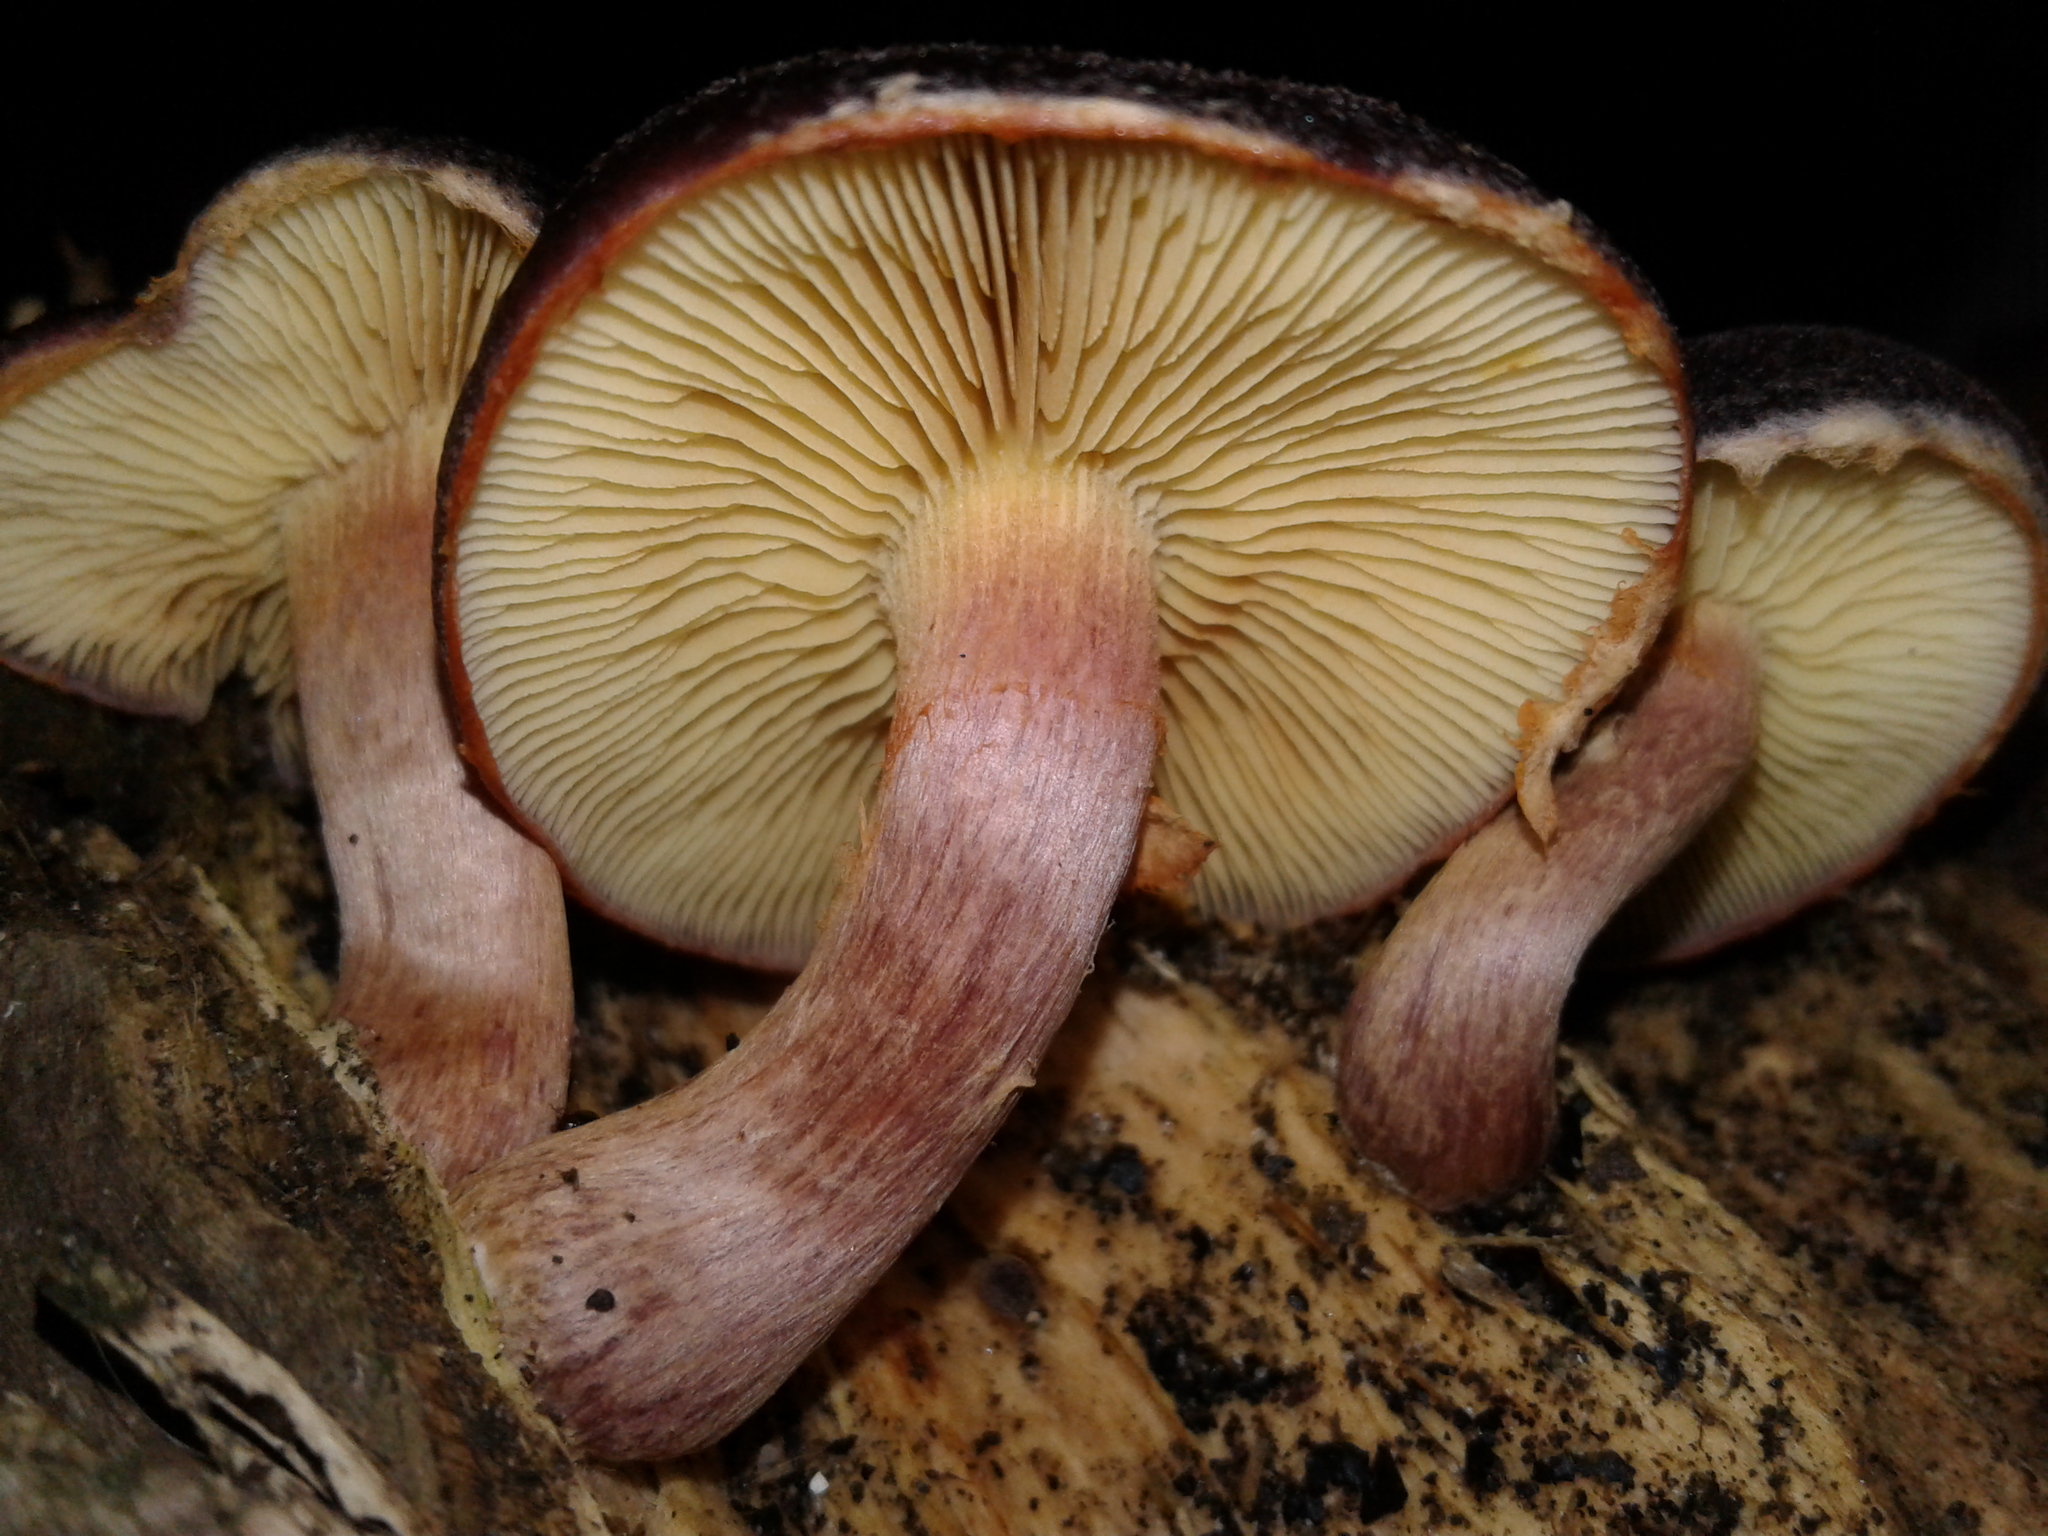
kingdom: Fungi
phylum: Basidiomycota
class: Agaricomycetes
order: Agaricales
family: Hymenogastraceae
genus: Gymnopilus
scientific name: Gymnopilus purpuratus
